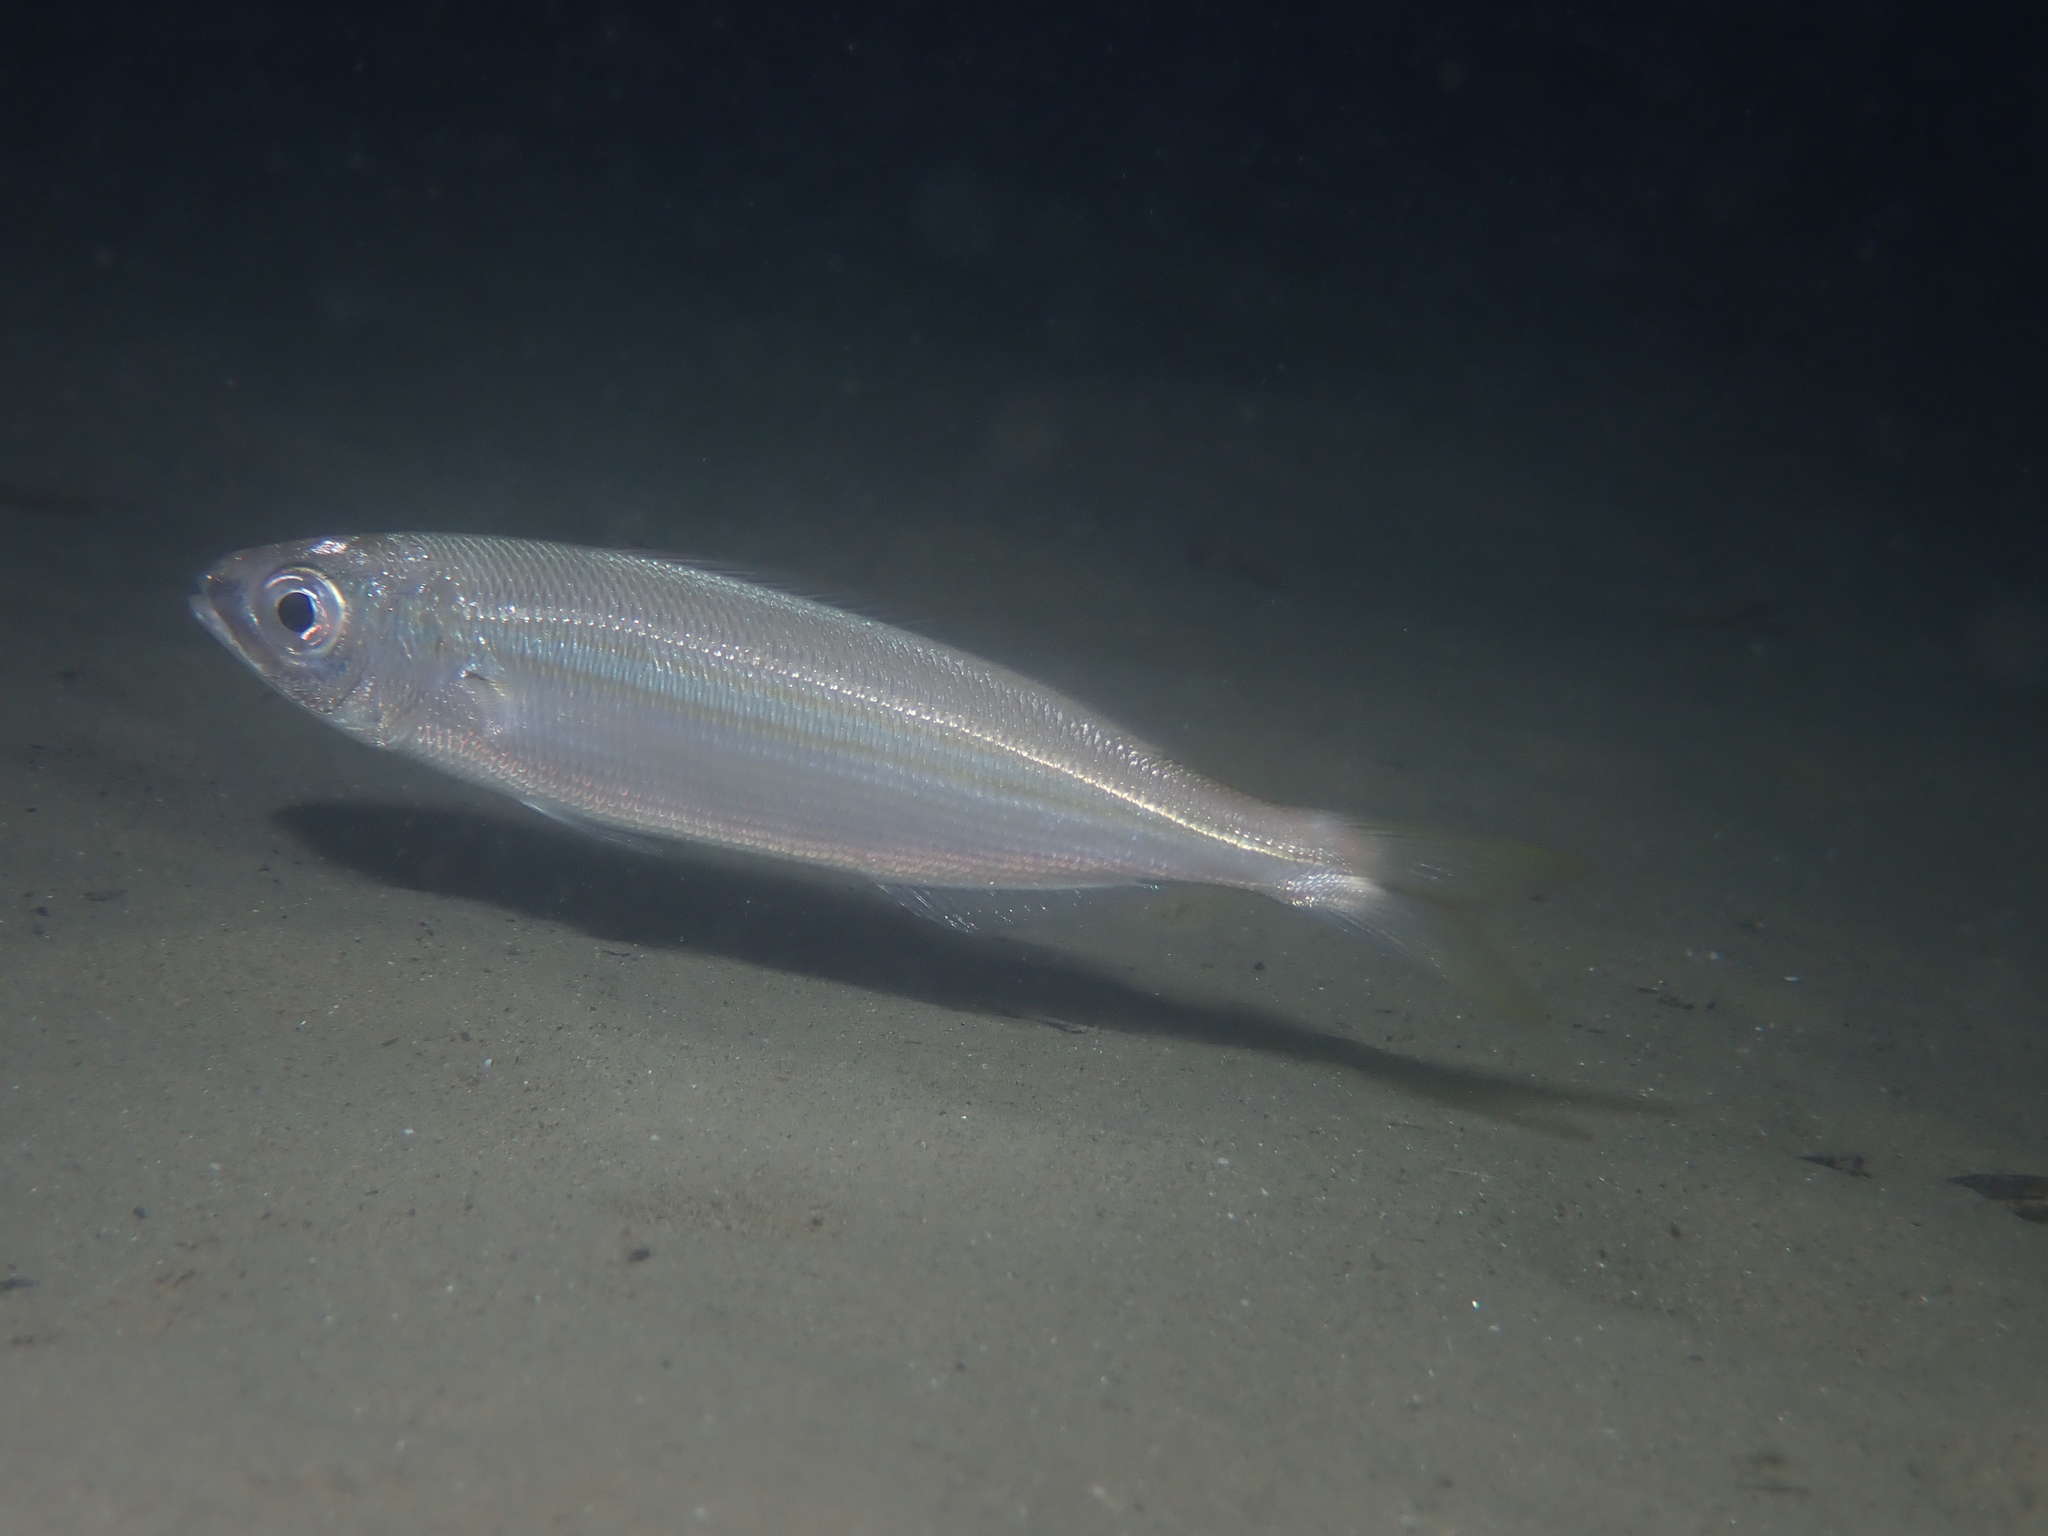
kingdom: Animalia
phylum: Chordata
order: Perciformes
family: Sparidae
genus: Boops
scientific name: Boops boops
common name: Bogue
